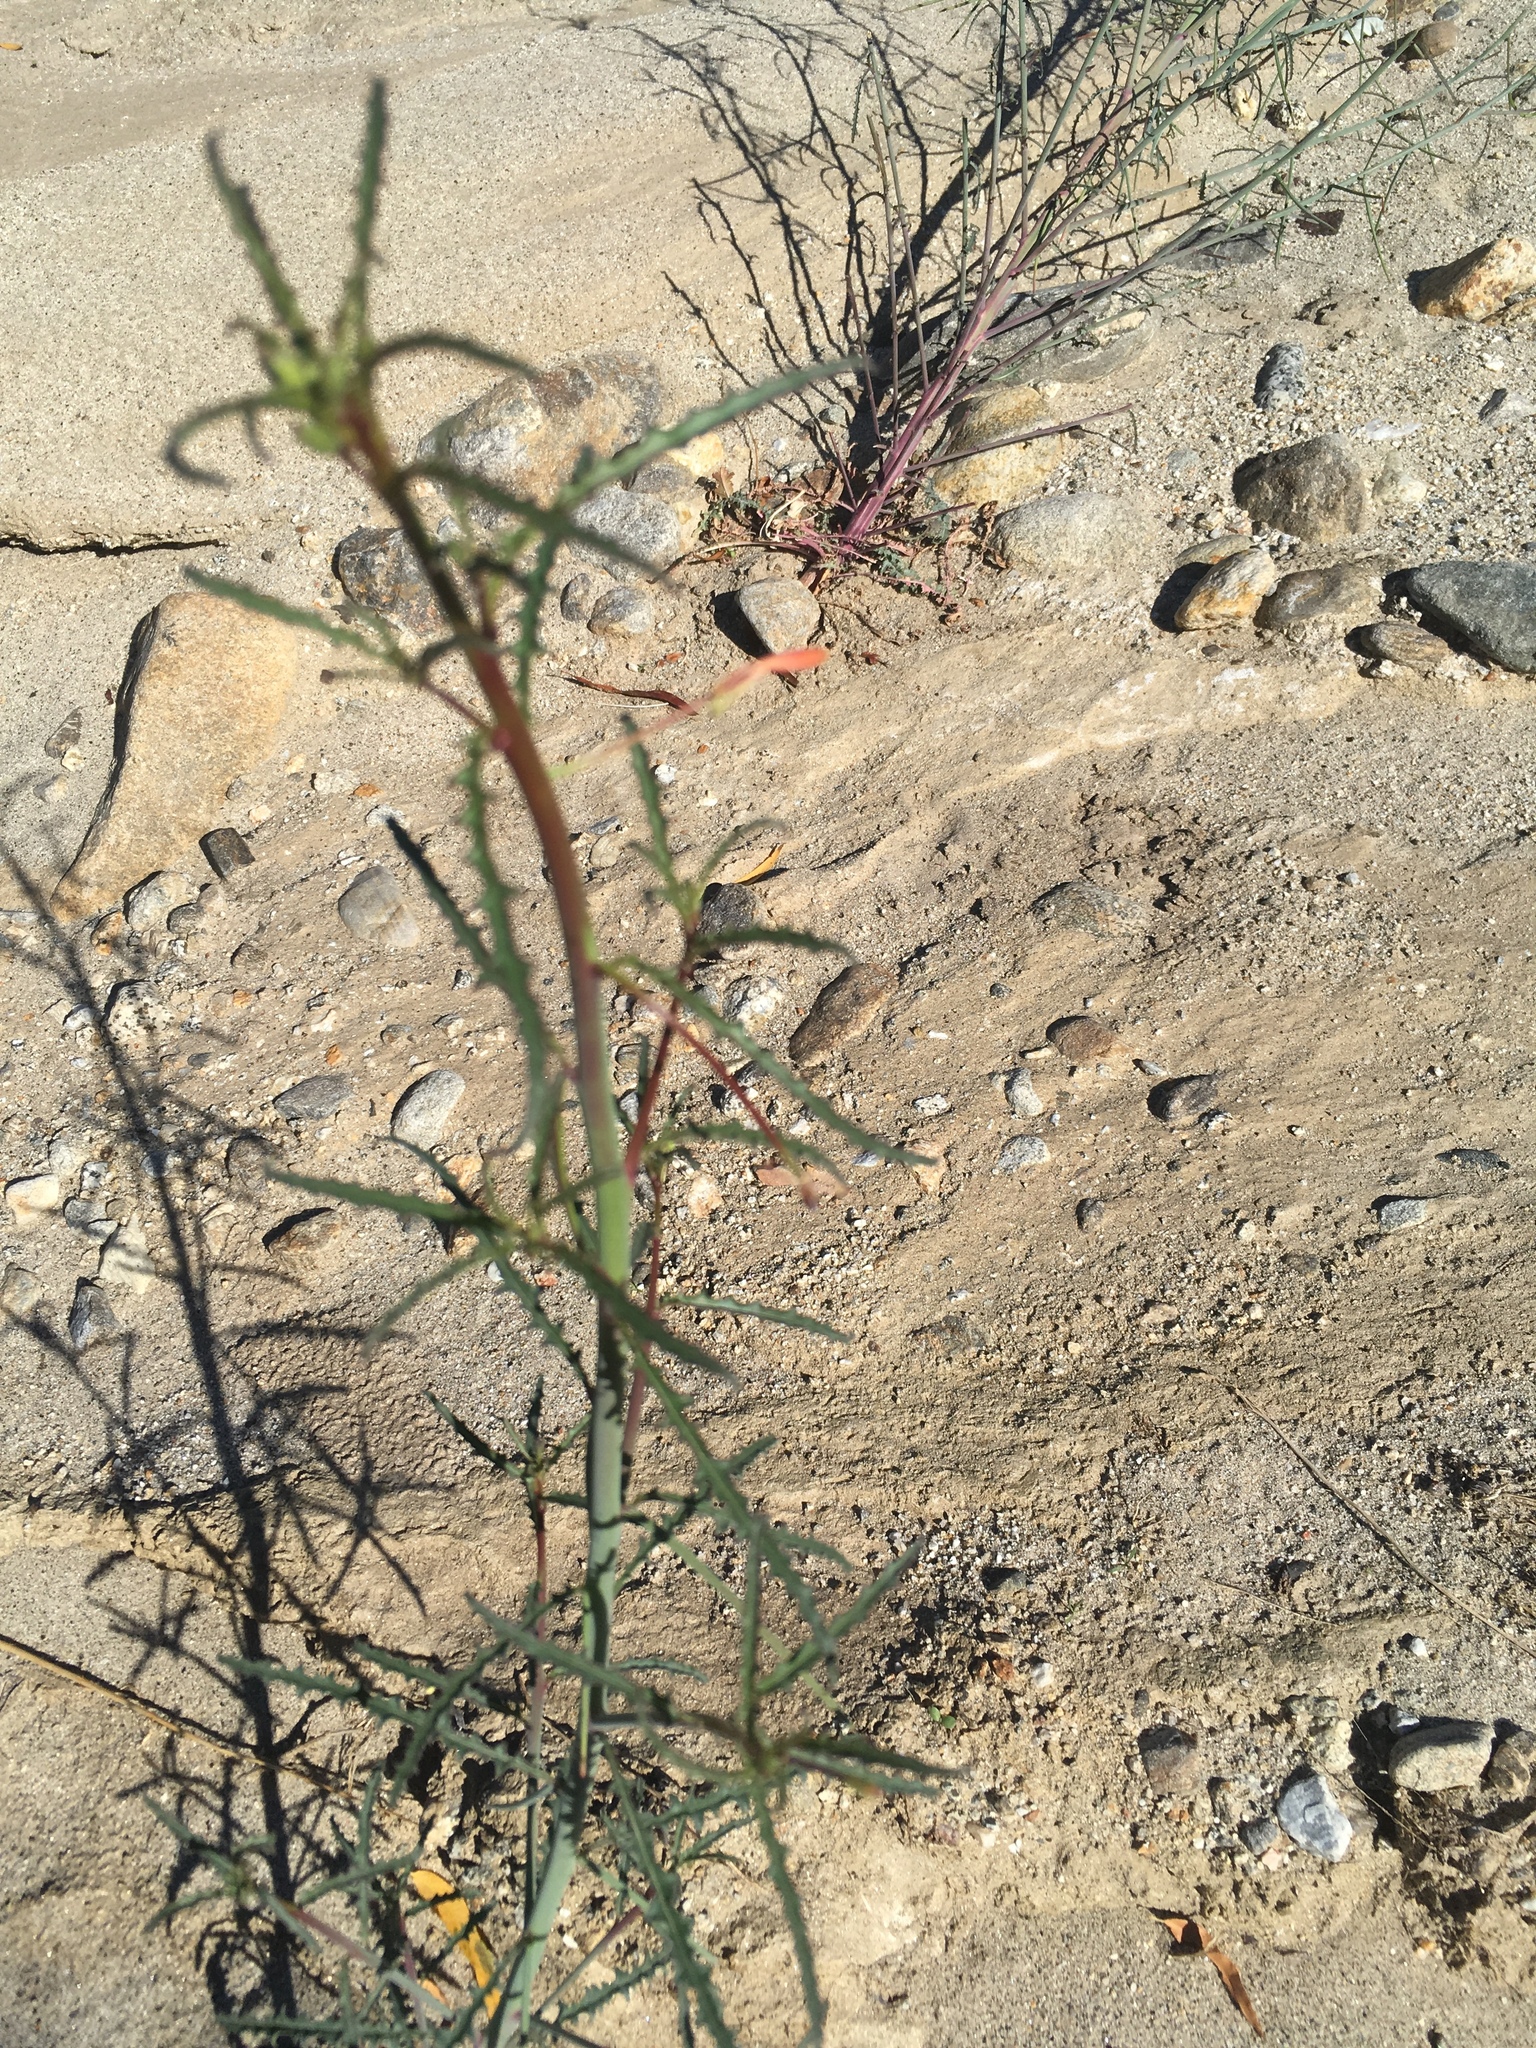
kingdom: Plantae
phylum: Tracheophyta
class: Magnoliopsida
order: Myrtales
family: Onagraceae
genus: Eulobus
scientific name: Eulobus californicus
